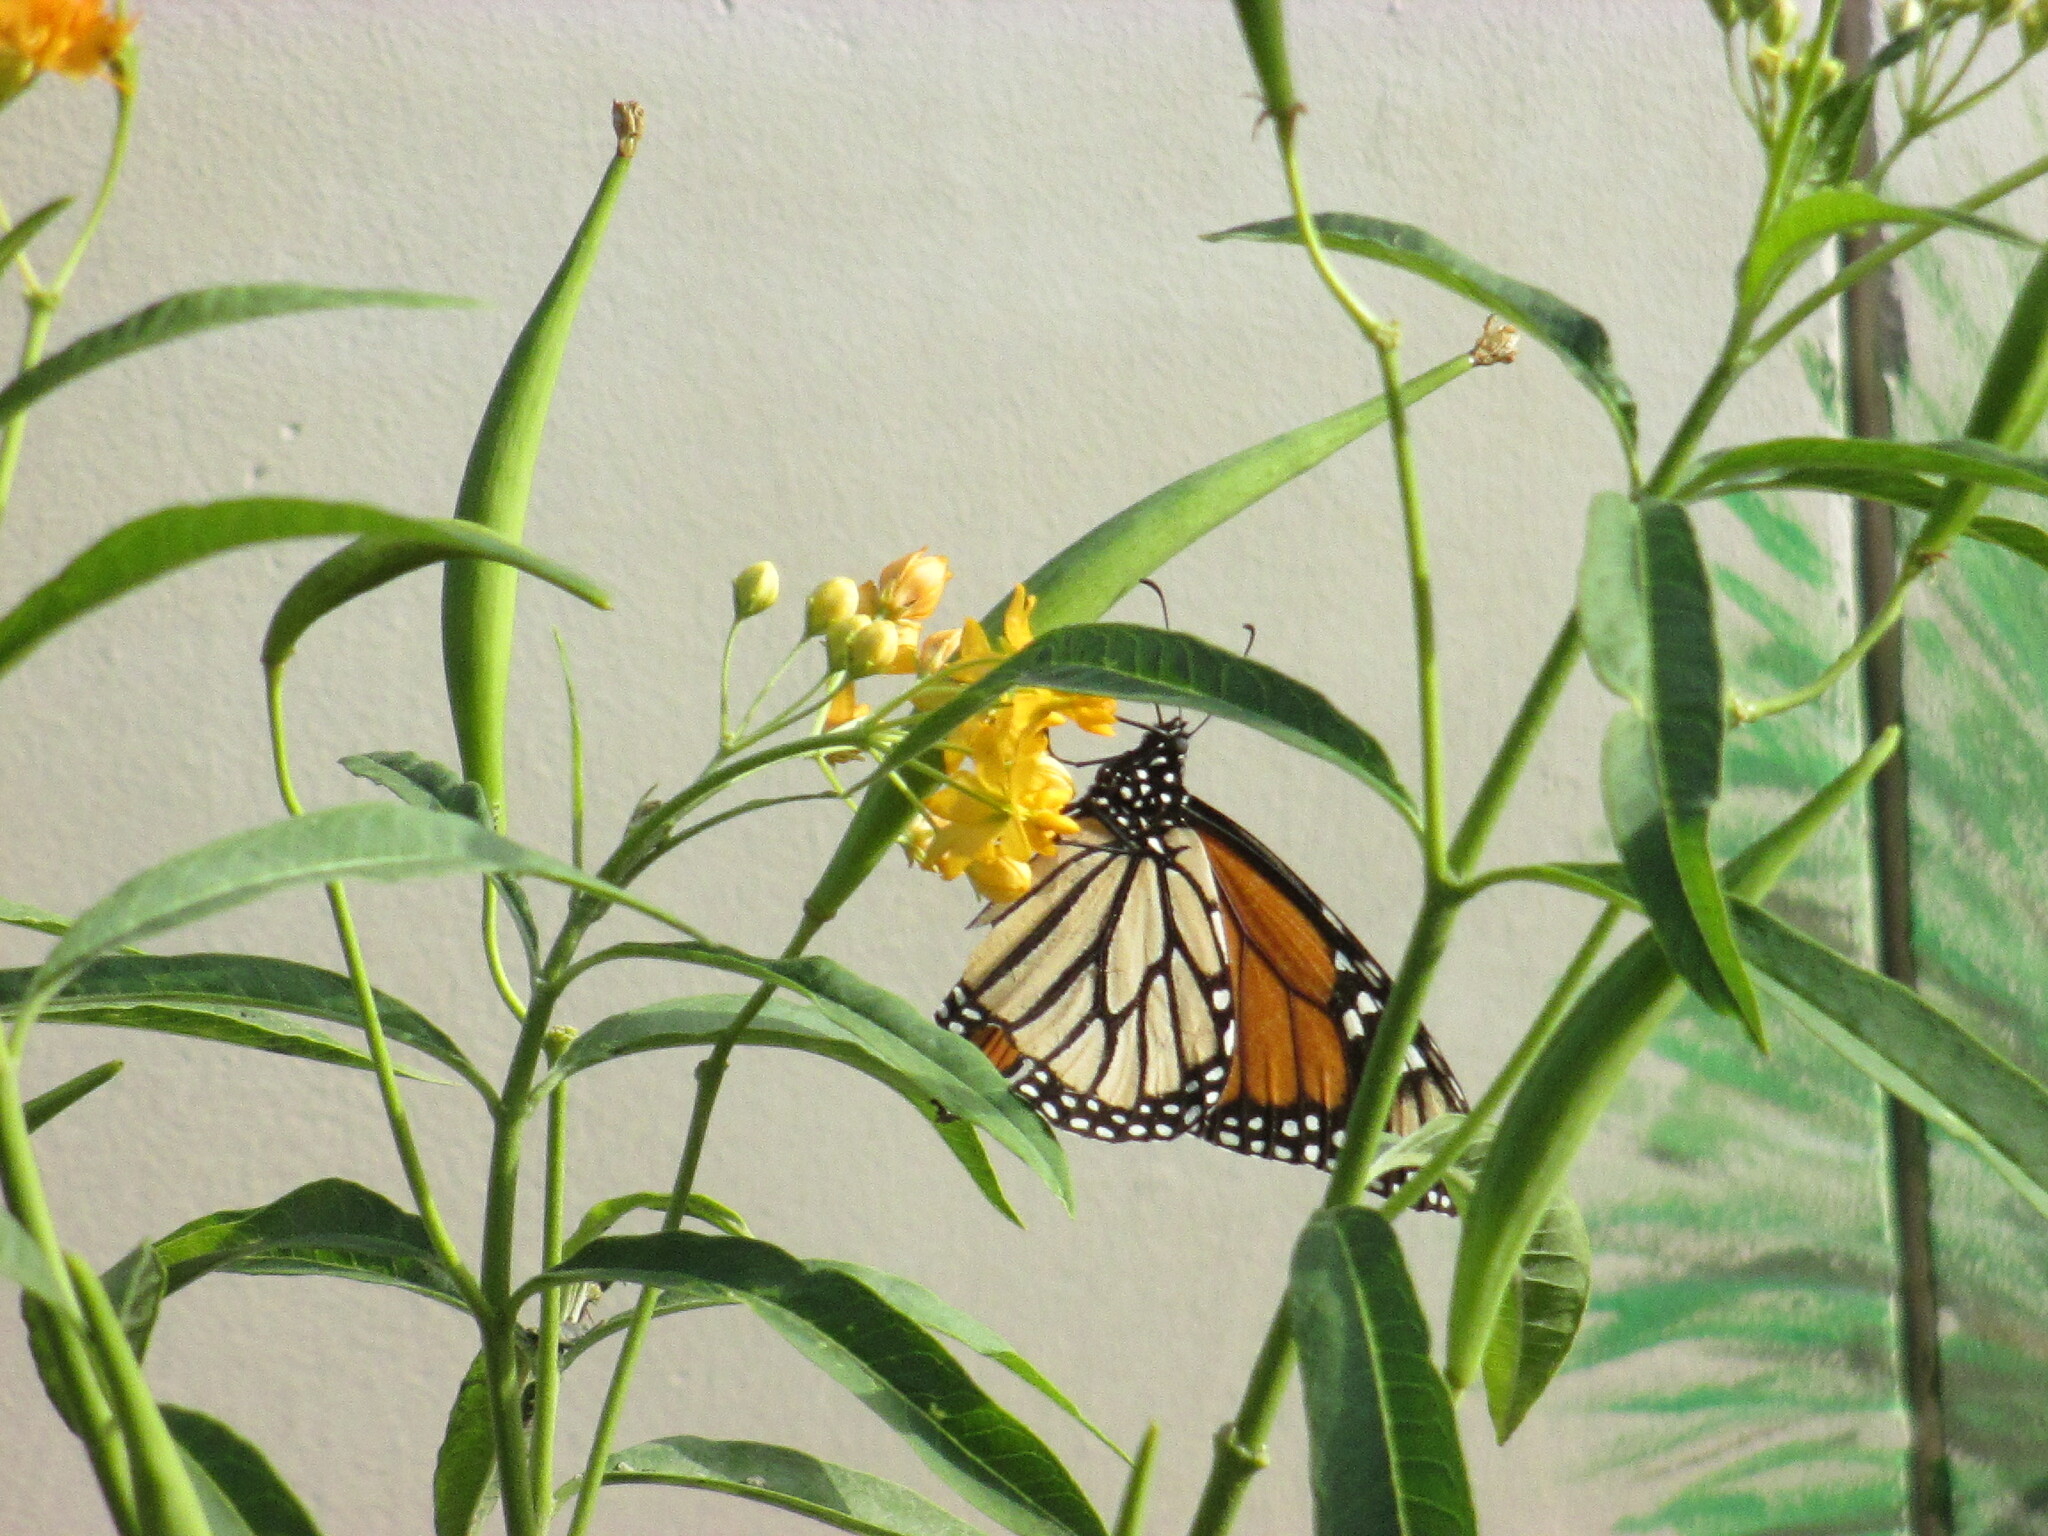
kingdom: Animalia
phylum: Arthropoda
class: Insecta
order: Lepidoptera
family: Nymphalidae
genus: Danaus
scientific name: Danaus plexippus
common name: Monarch
